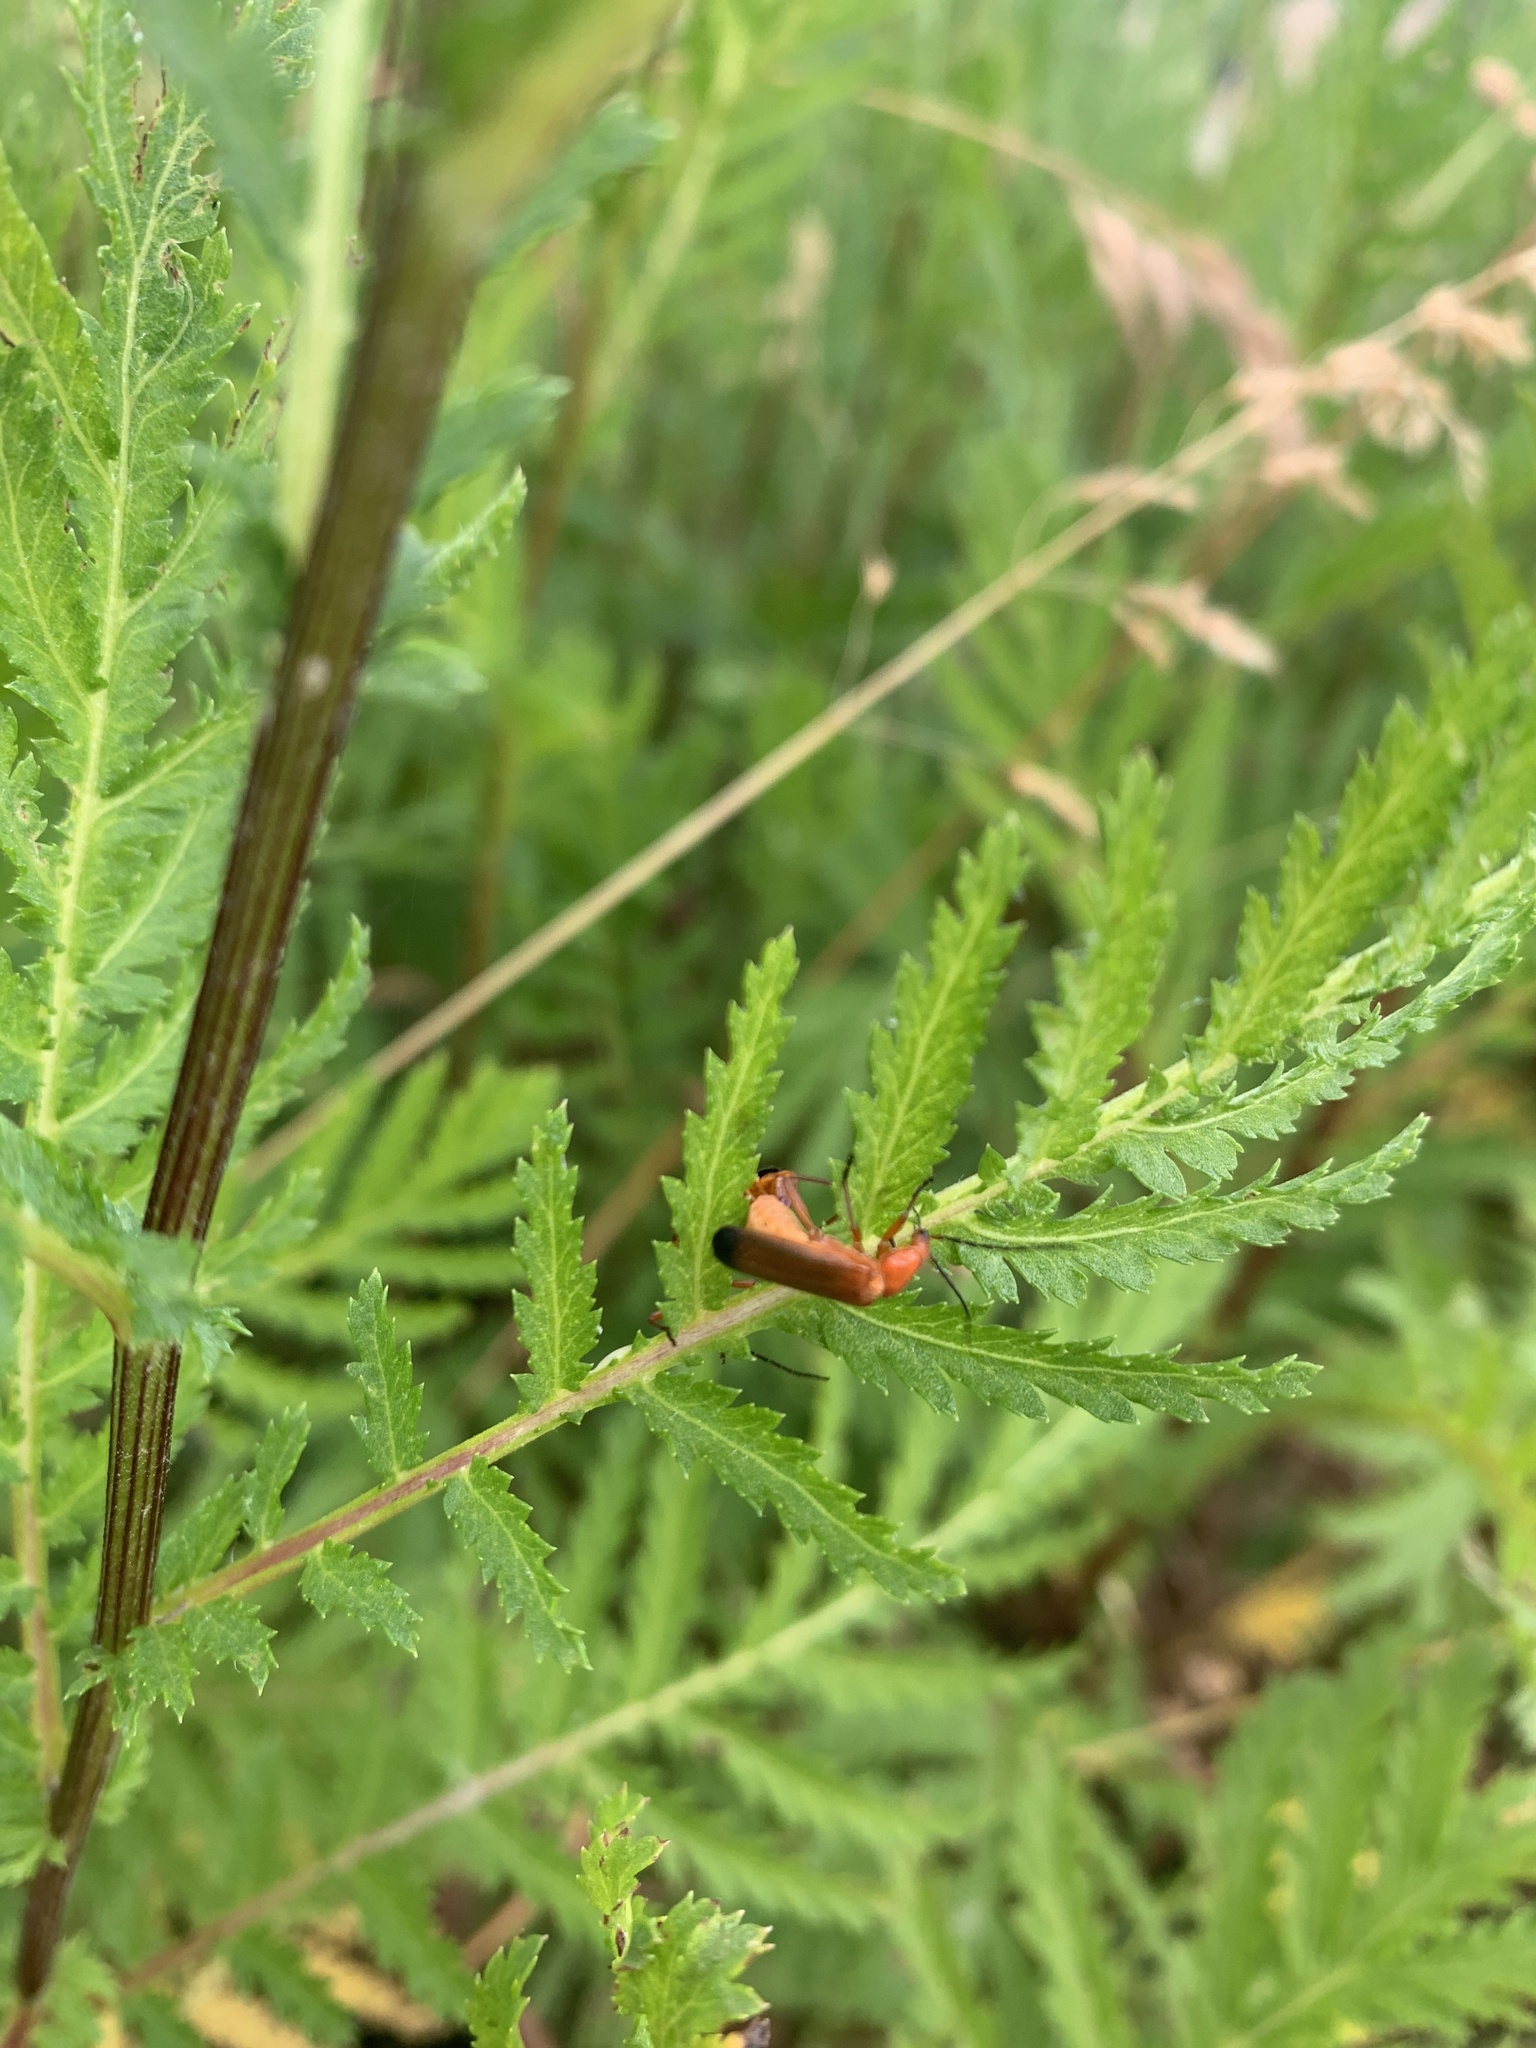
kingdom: Animalia
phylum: Arthropoda
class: Insecta
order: Coleoptera
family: Cantharidae
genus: Rhagonycha
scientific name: Rhagonycha fulva
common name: Common red soldier beetle
